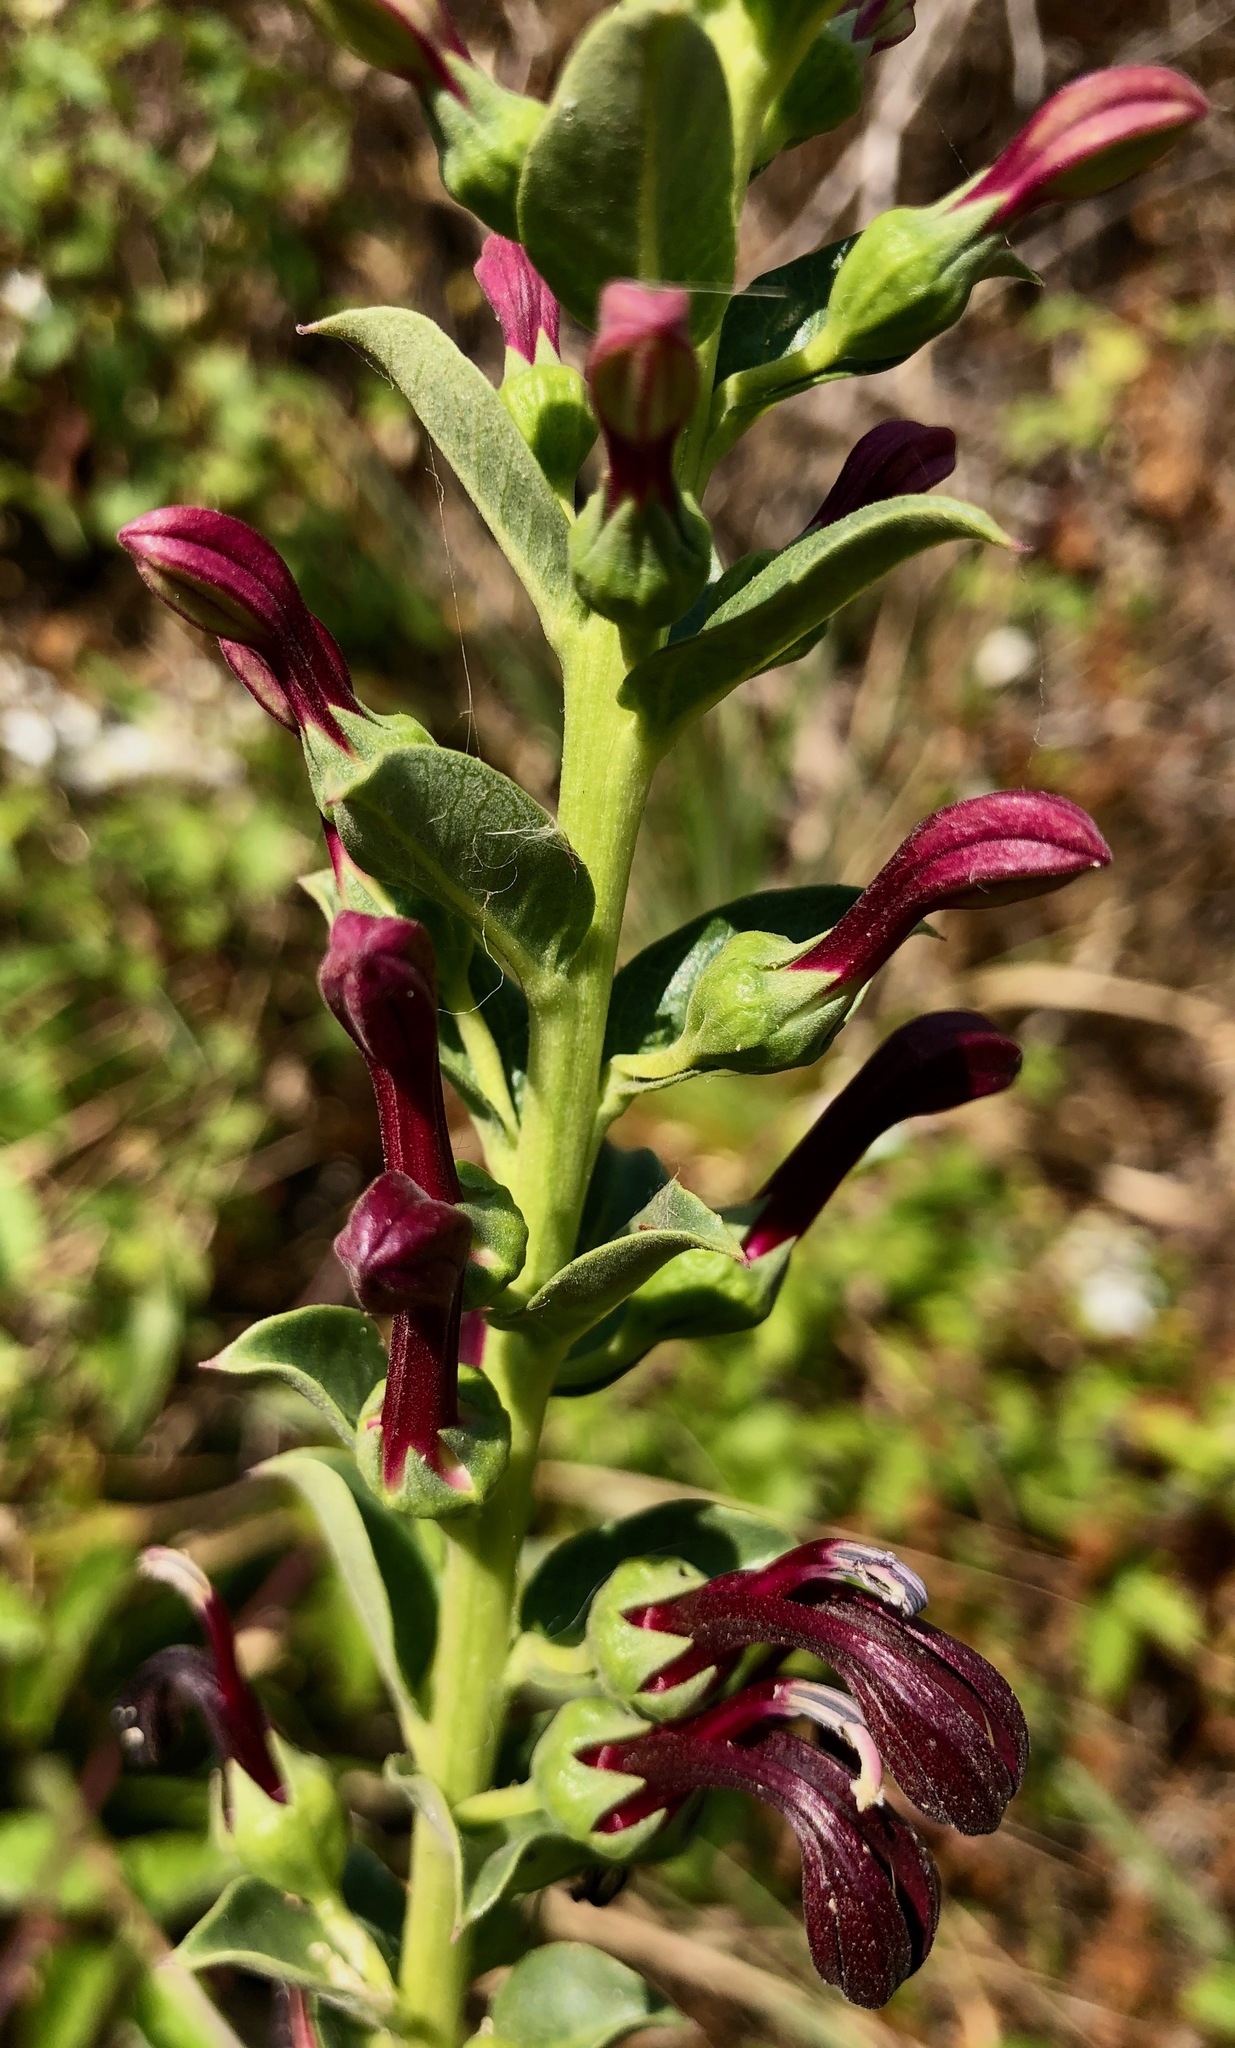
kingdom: Plantae
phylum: Tracheophyta
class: Magnoliopsida
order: Asterales
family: Campanulaceae
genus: Lobelia
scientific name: Lobelia polyphylla
